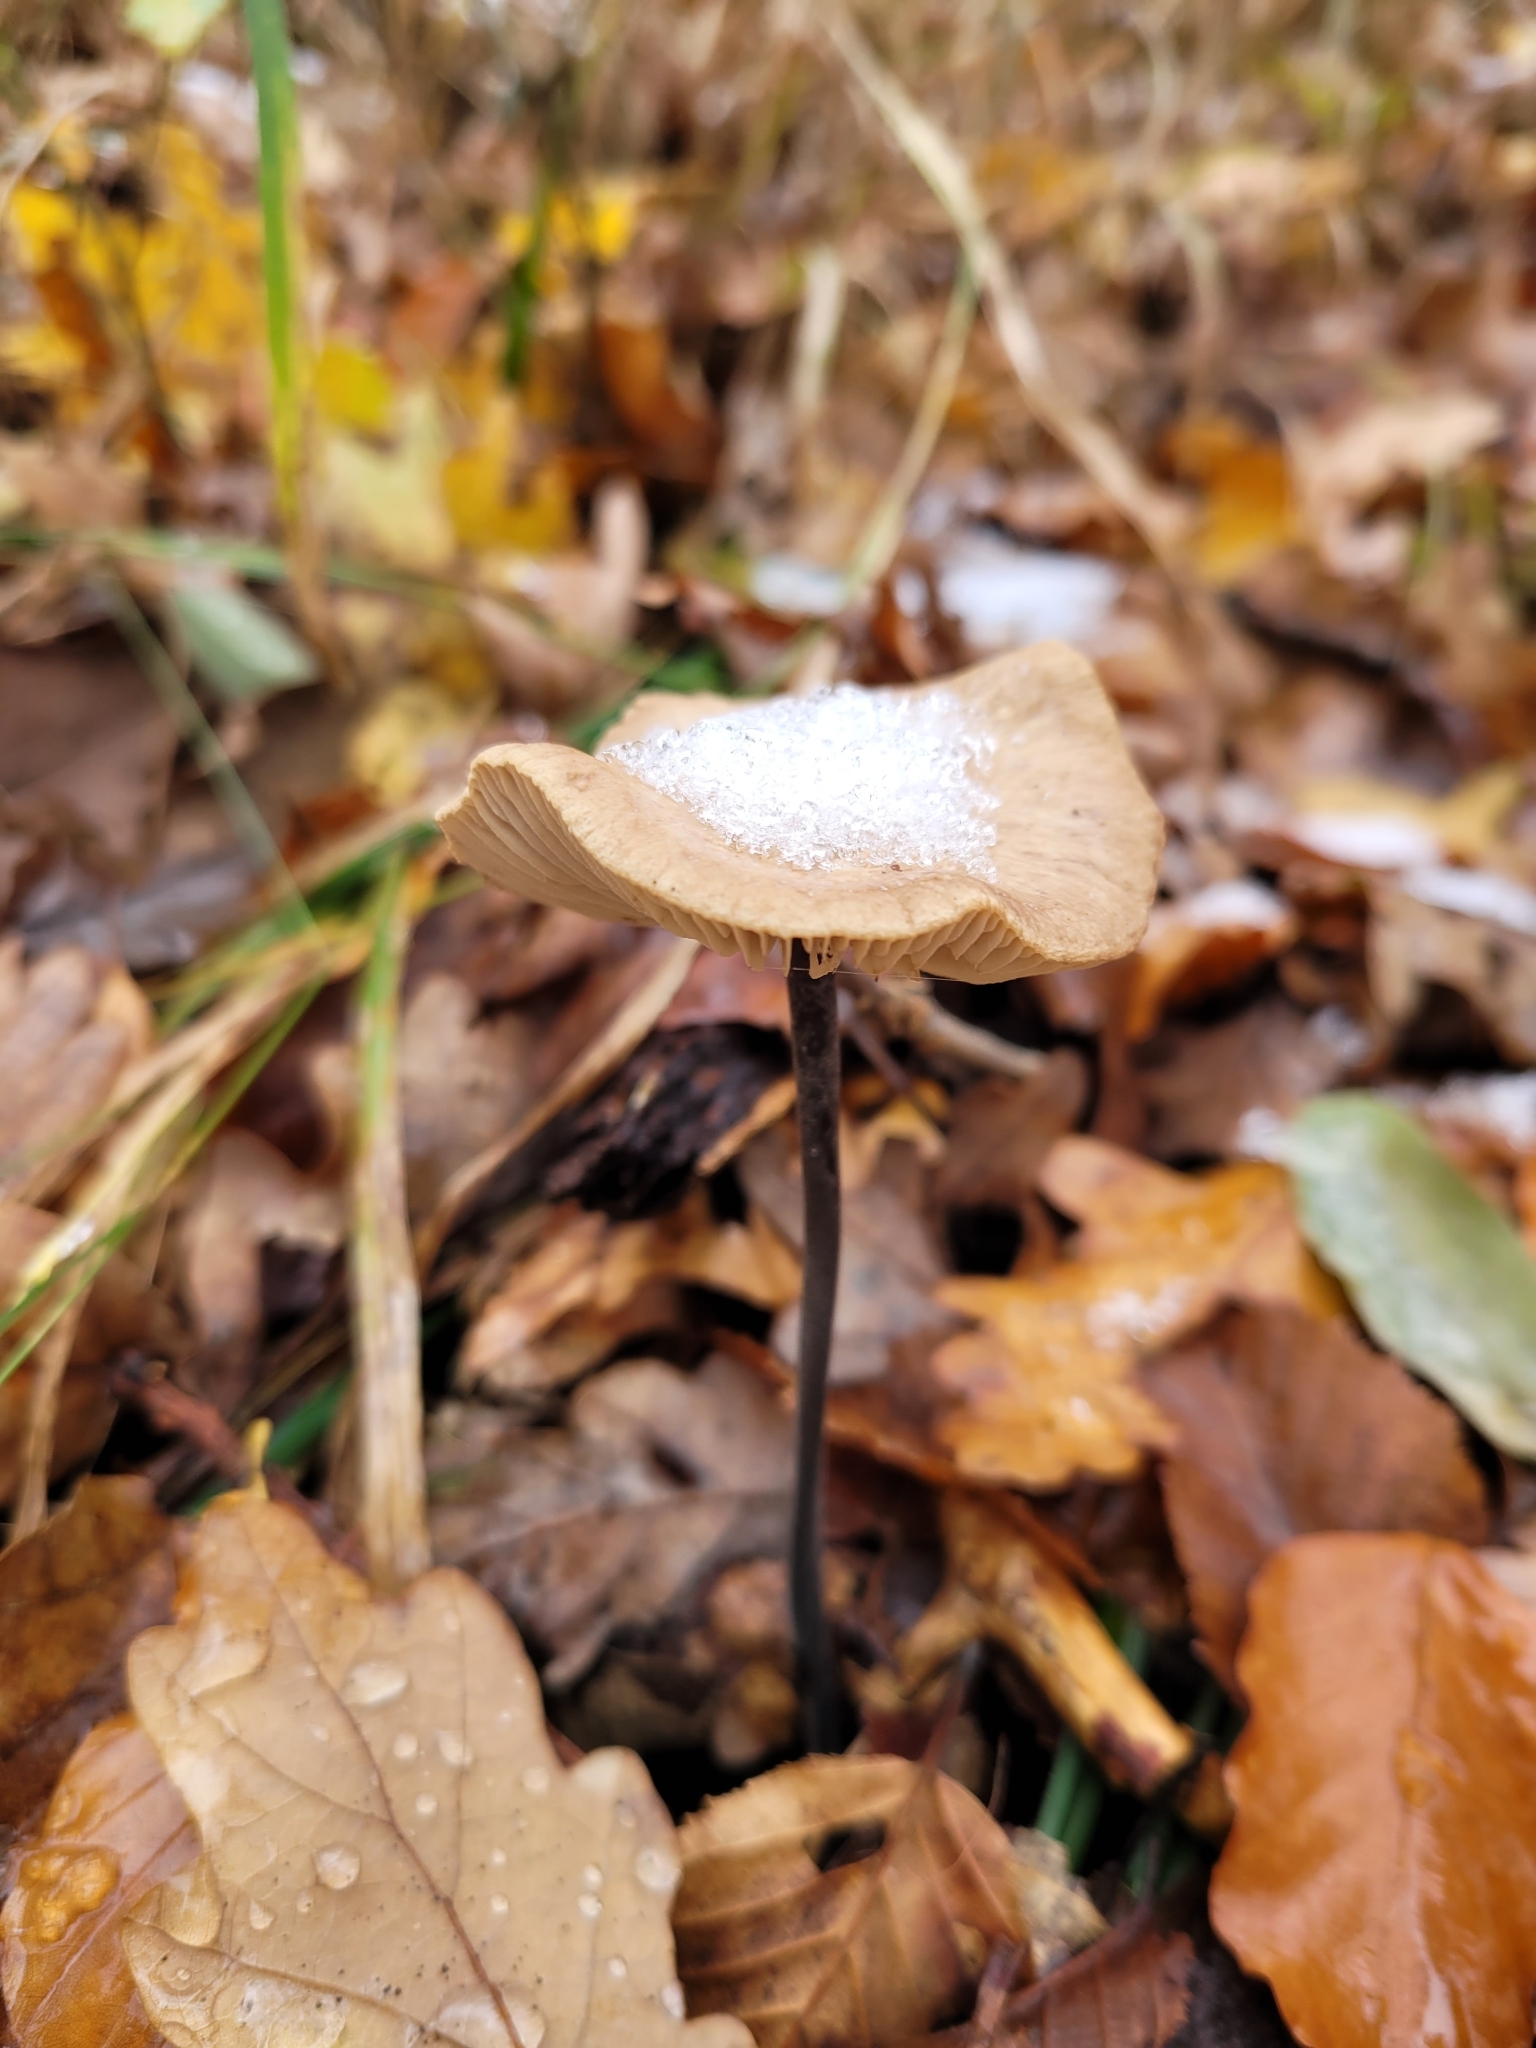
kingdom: Fungi
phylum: Basidiomycota
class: Agaricomycetes
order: Agaricales
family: Omphalotaceae
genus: Mycetinis
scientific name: Mycetinis alliaceus
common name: Garlic parachute
